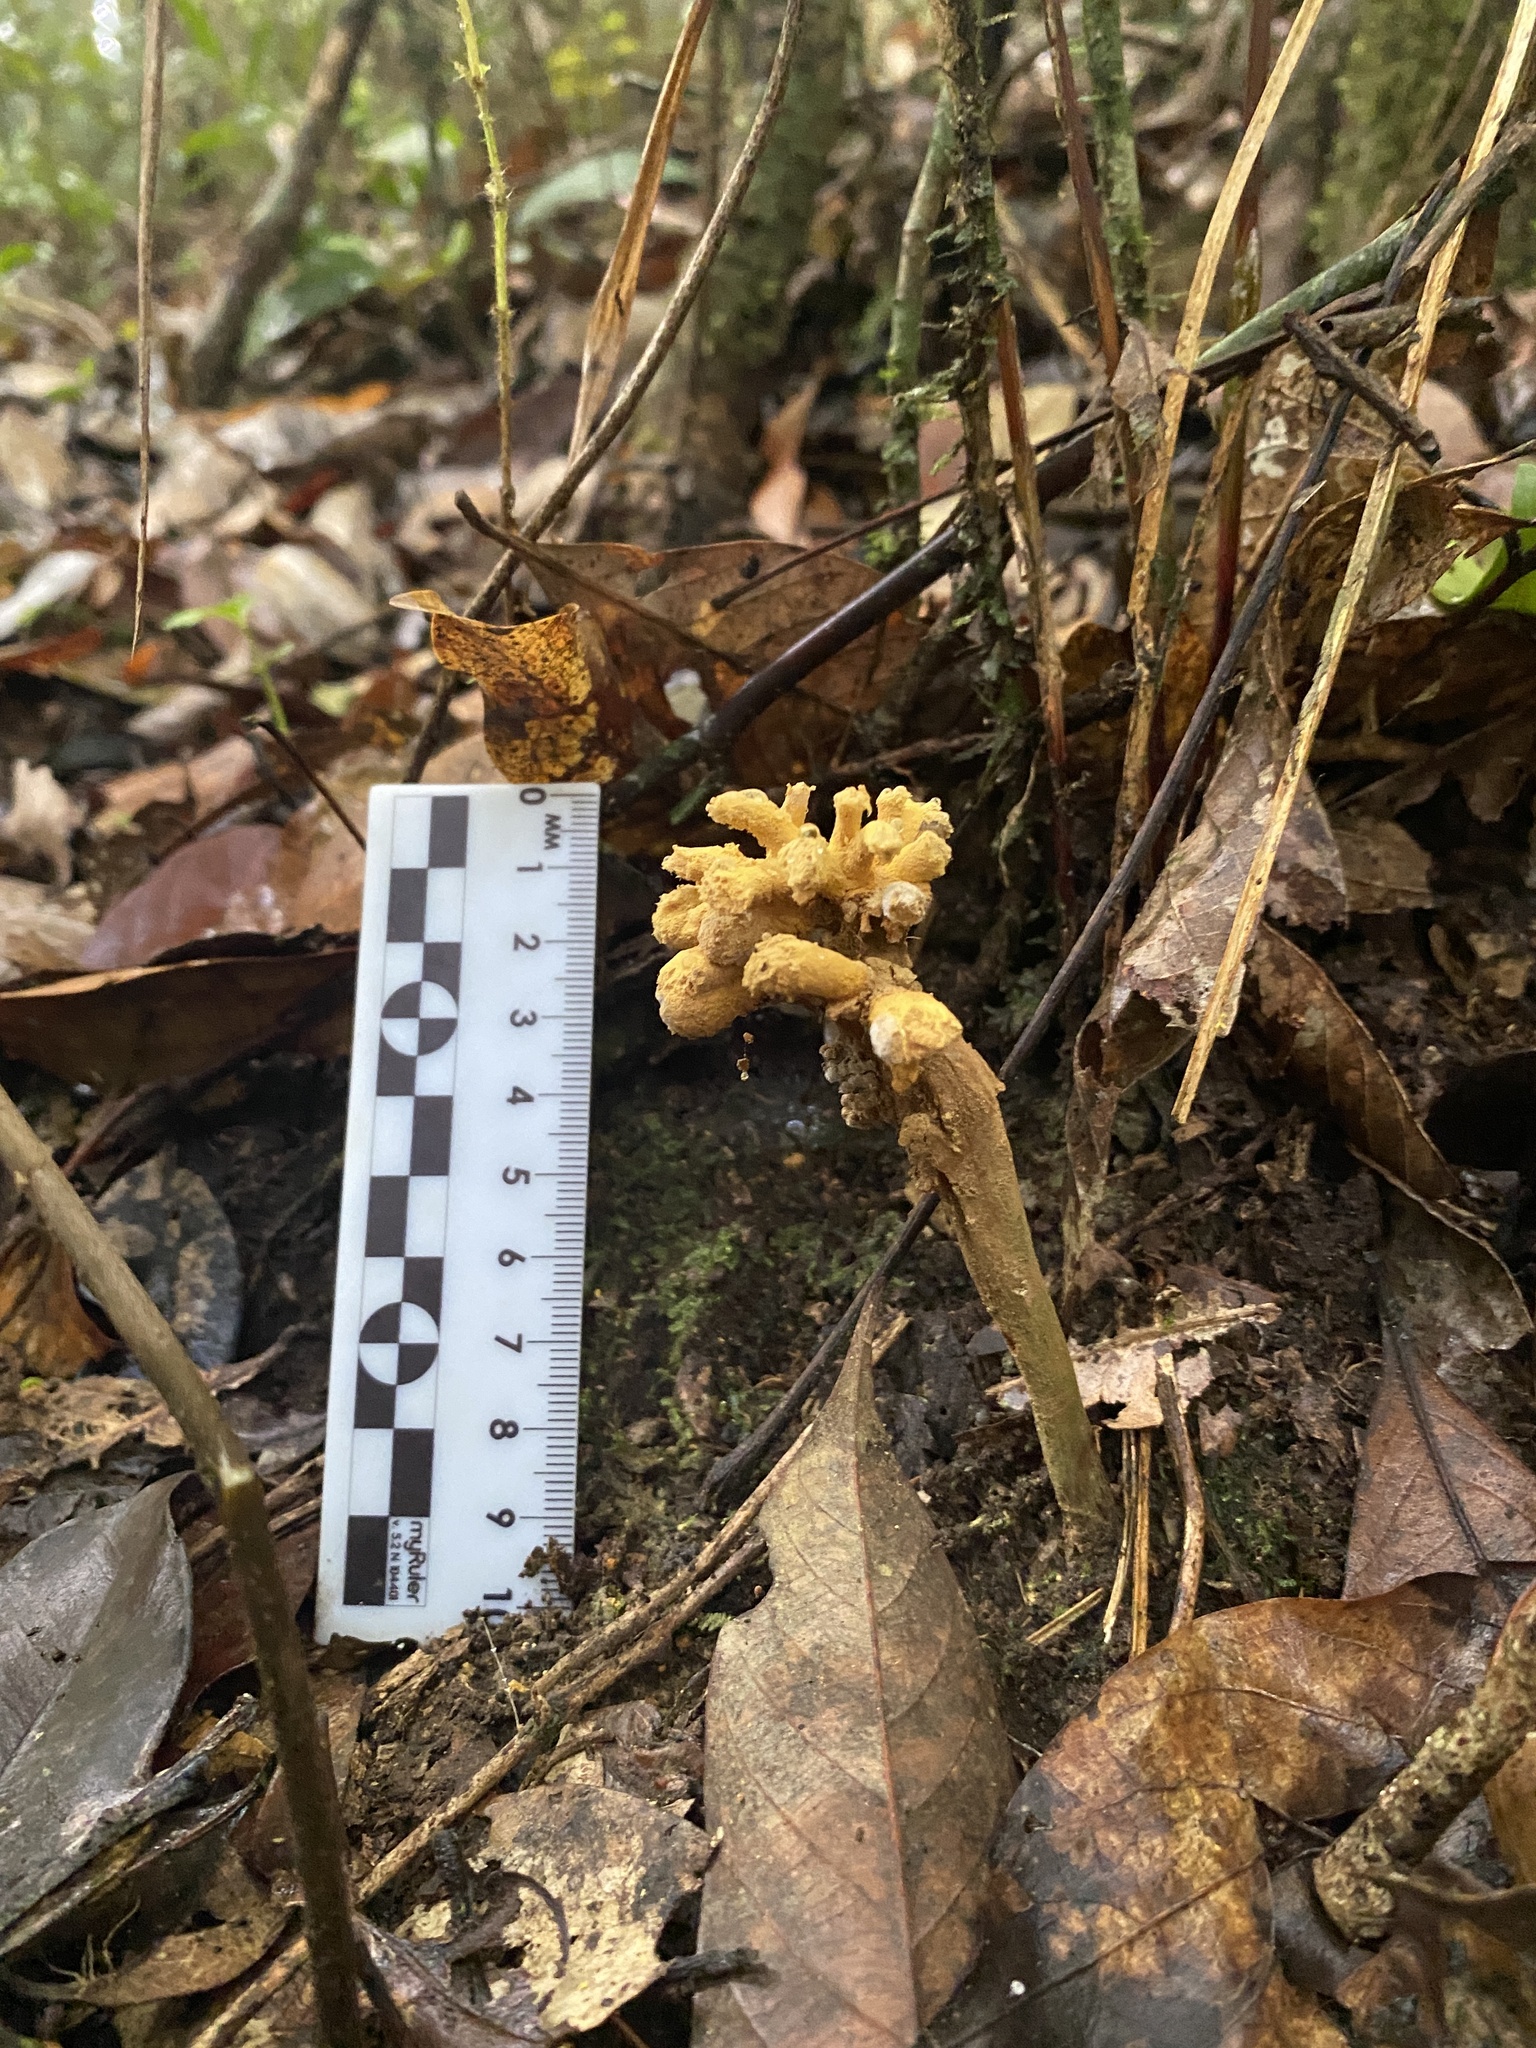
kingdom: Fungi
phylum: Ascomycota
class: Eurotiomycetes
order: Eurotiales
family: Aspergillaceae
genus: Dendrosphaera
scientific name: Dendrosphaera eberhardtii
